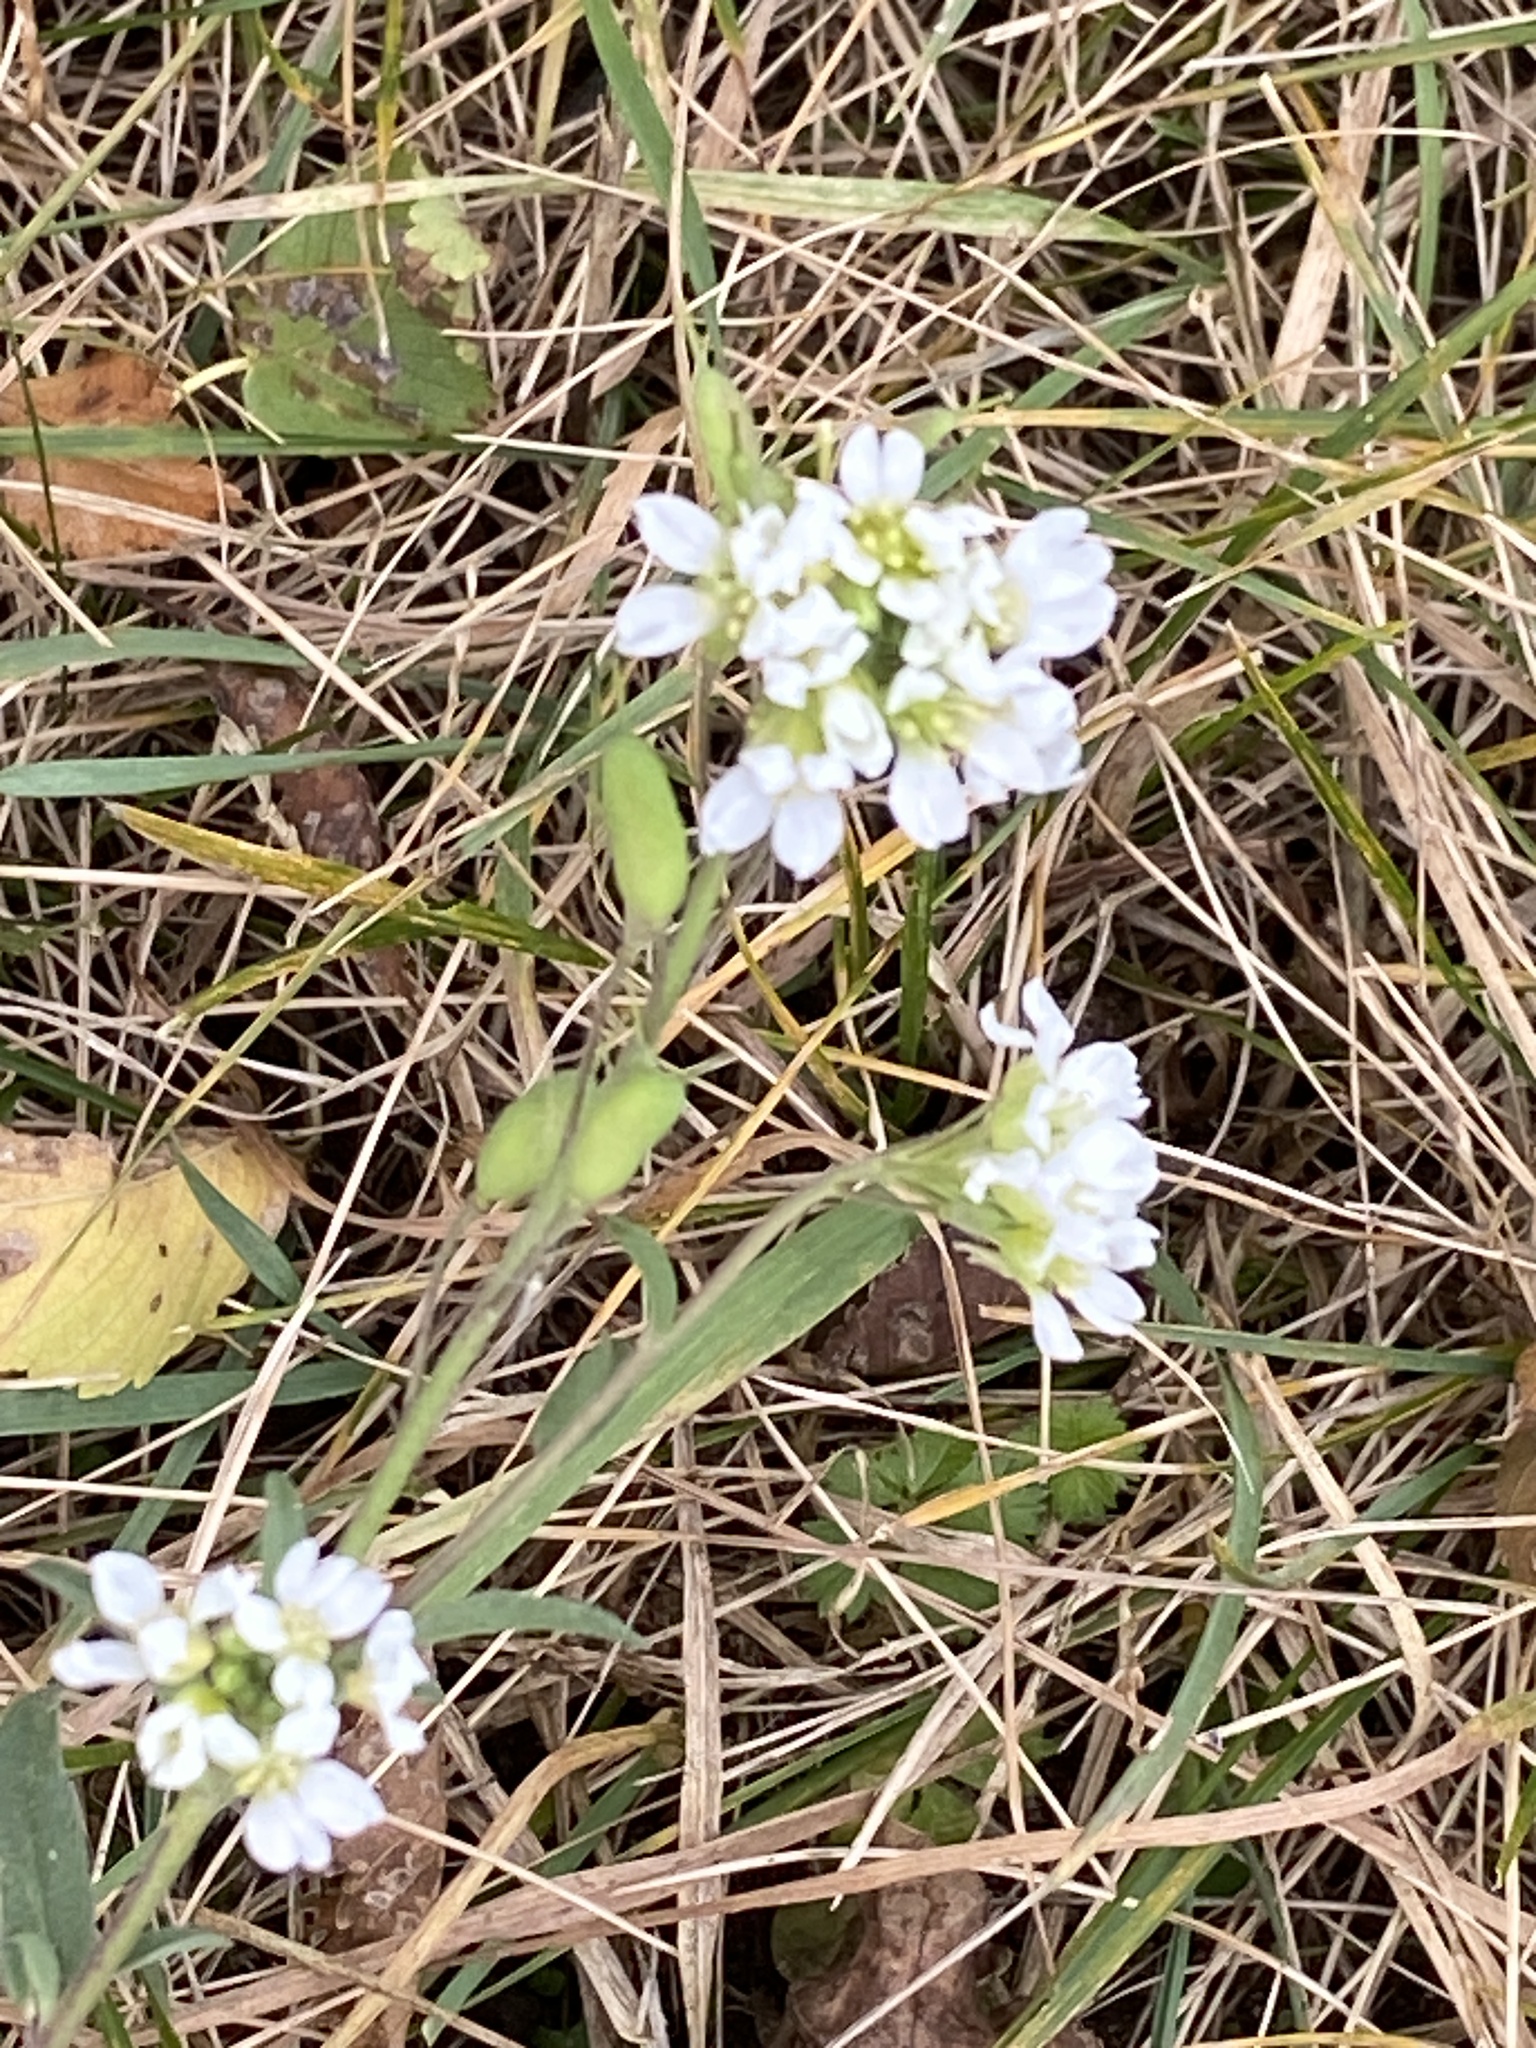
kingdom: Plantae
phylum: Tracheophyta
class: Magnoliopsida
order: Brassicales
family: Brassicaceae
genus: Berteroa
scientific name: Berteroa incana
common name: Hoary alison
